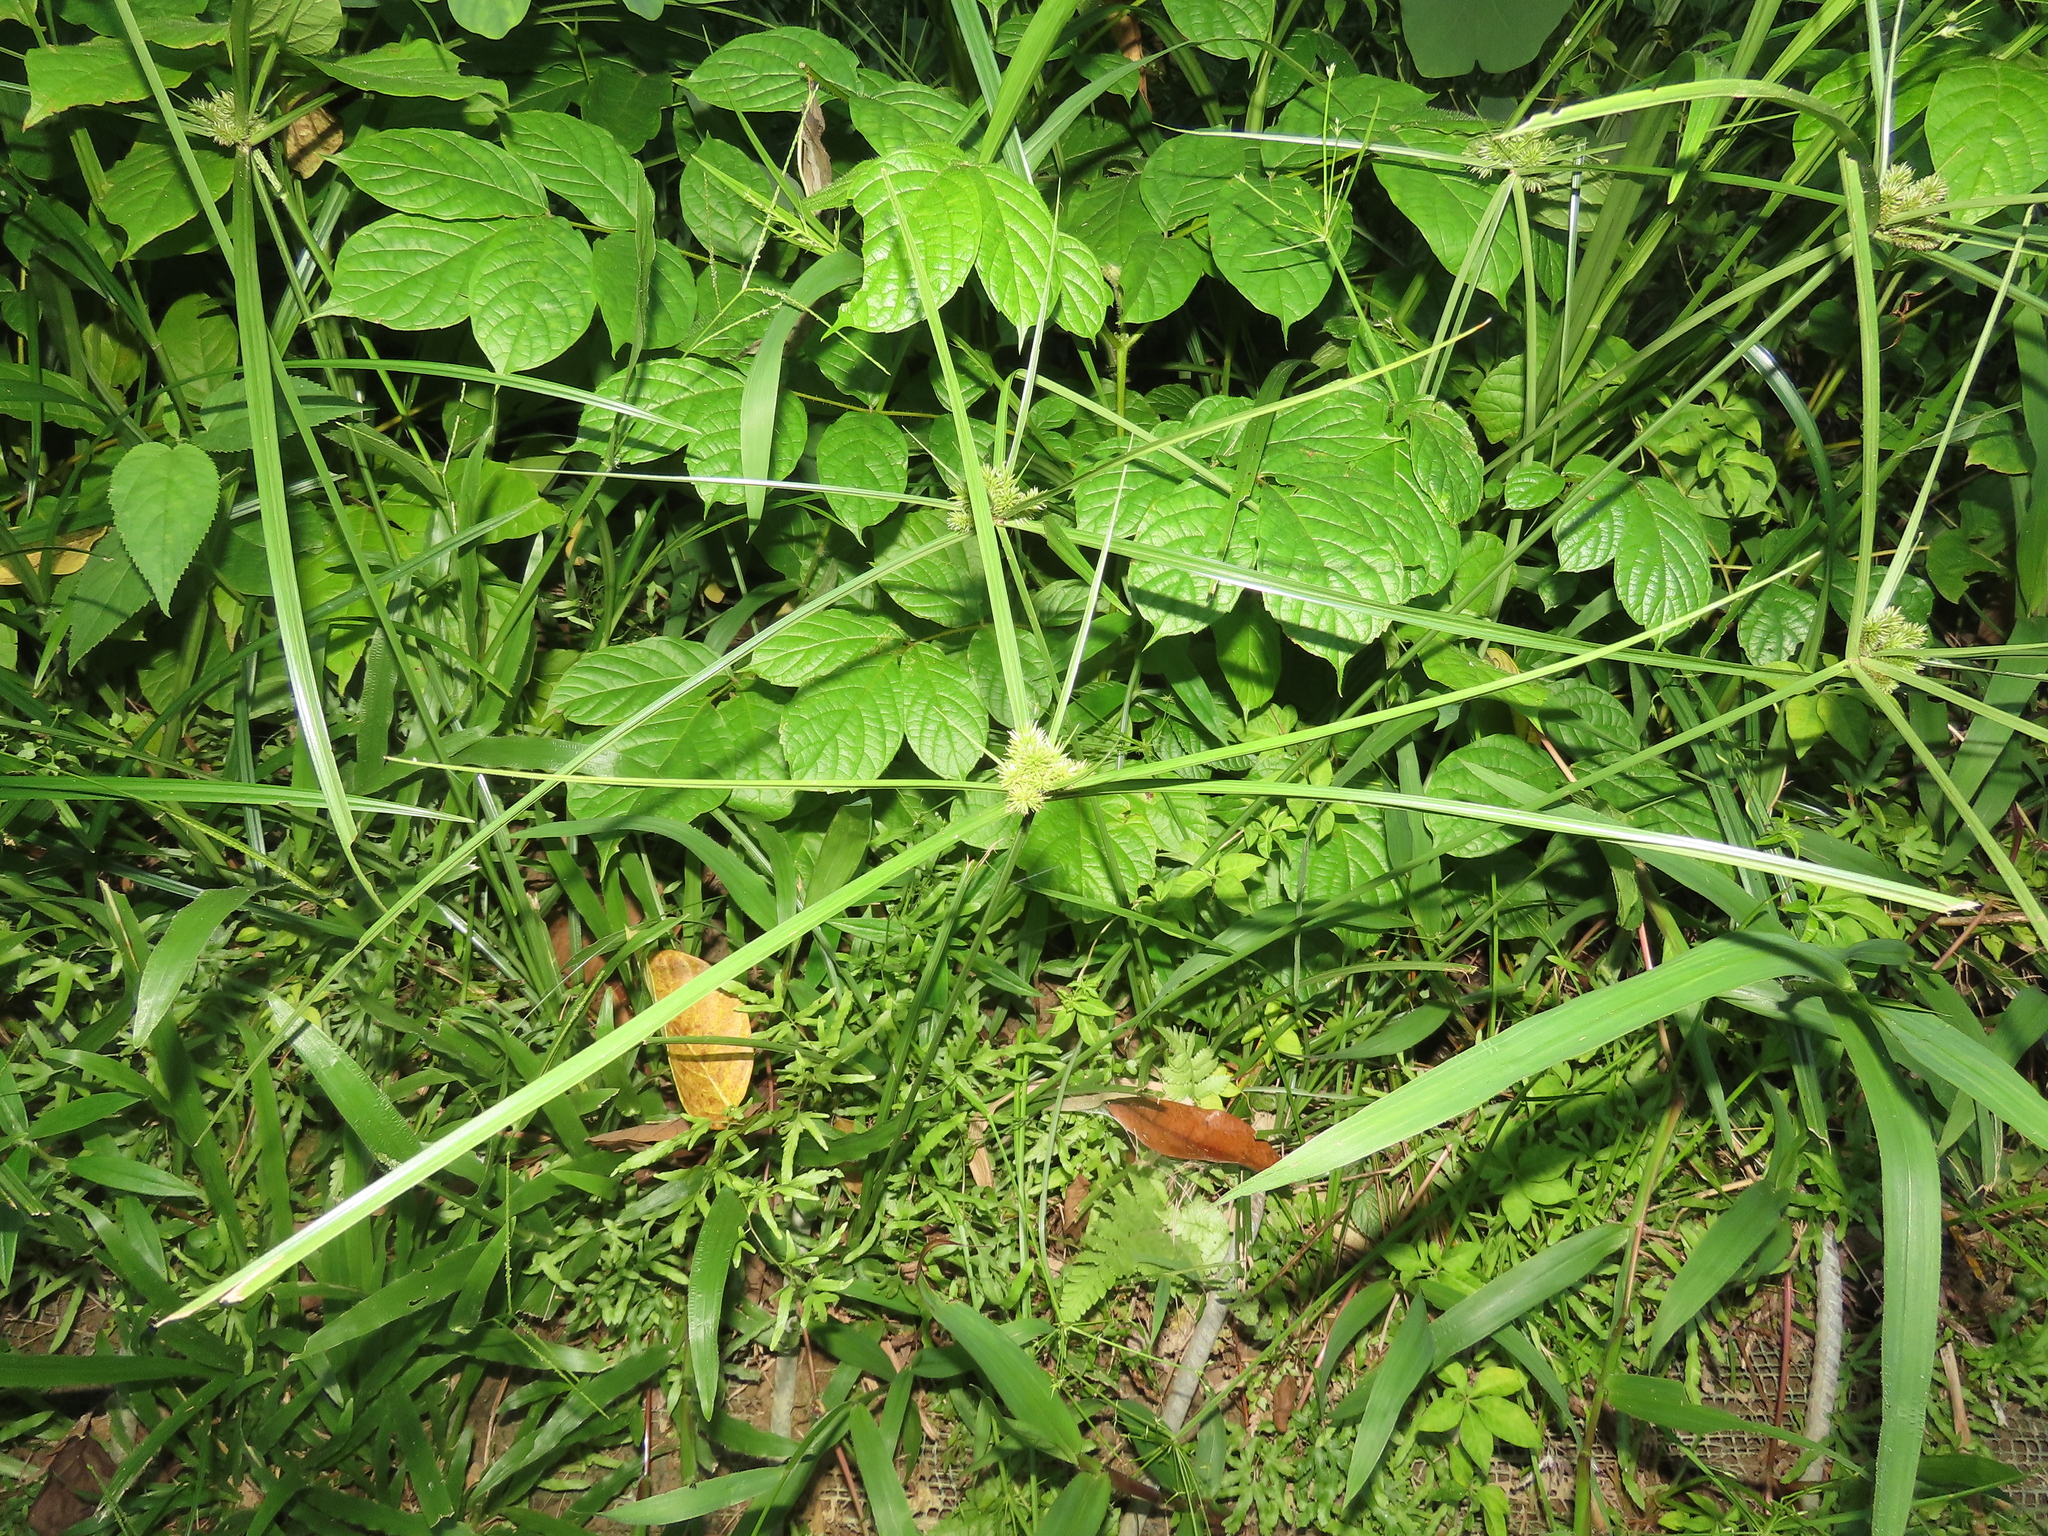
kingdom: Plantae
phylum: Tracheophyta
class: Liliopsida
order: Poales
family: Cyperaceae
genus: Cyperus
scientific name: Cyperus cyperoides
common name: Pacific island flat sedge
